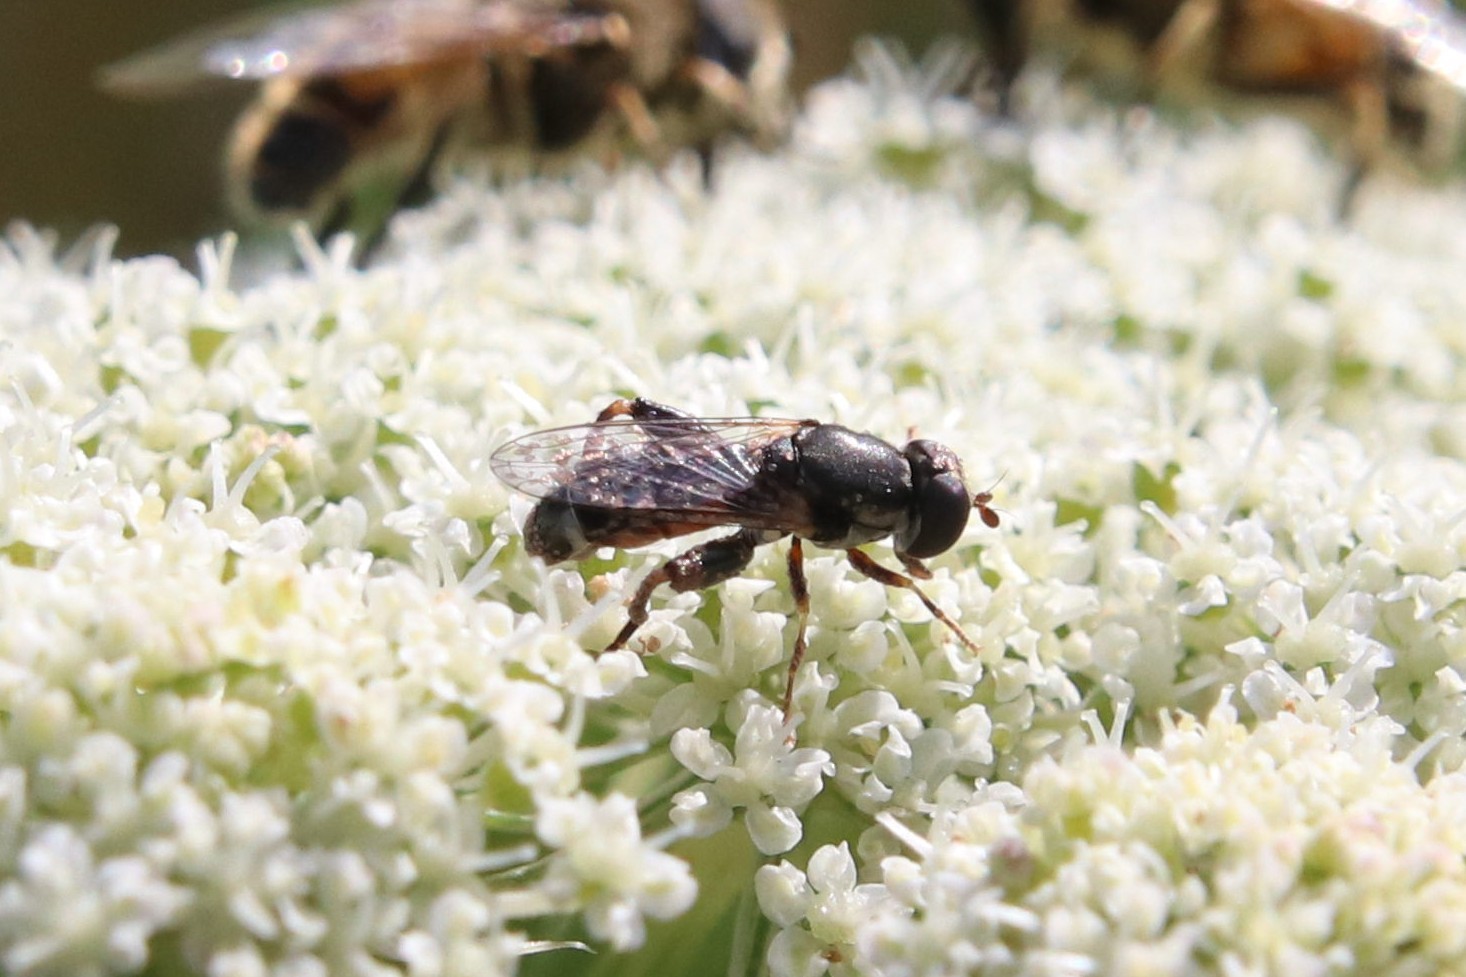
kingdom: Animalia
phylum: Arthropoda
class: Insecta
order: Diptera
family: Syrphidae
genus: Syritta
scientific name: Syritta pipiens
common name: Hover fly
